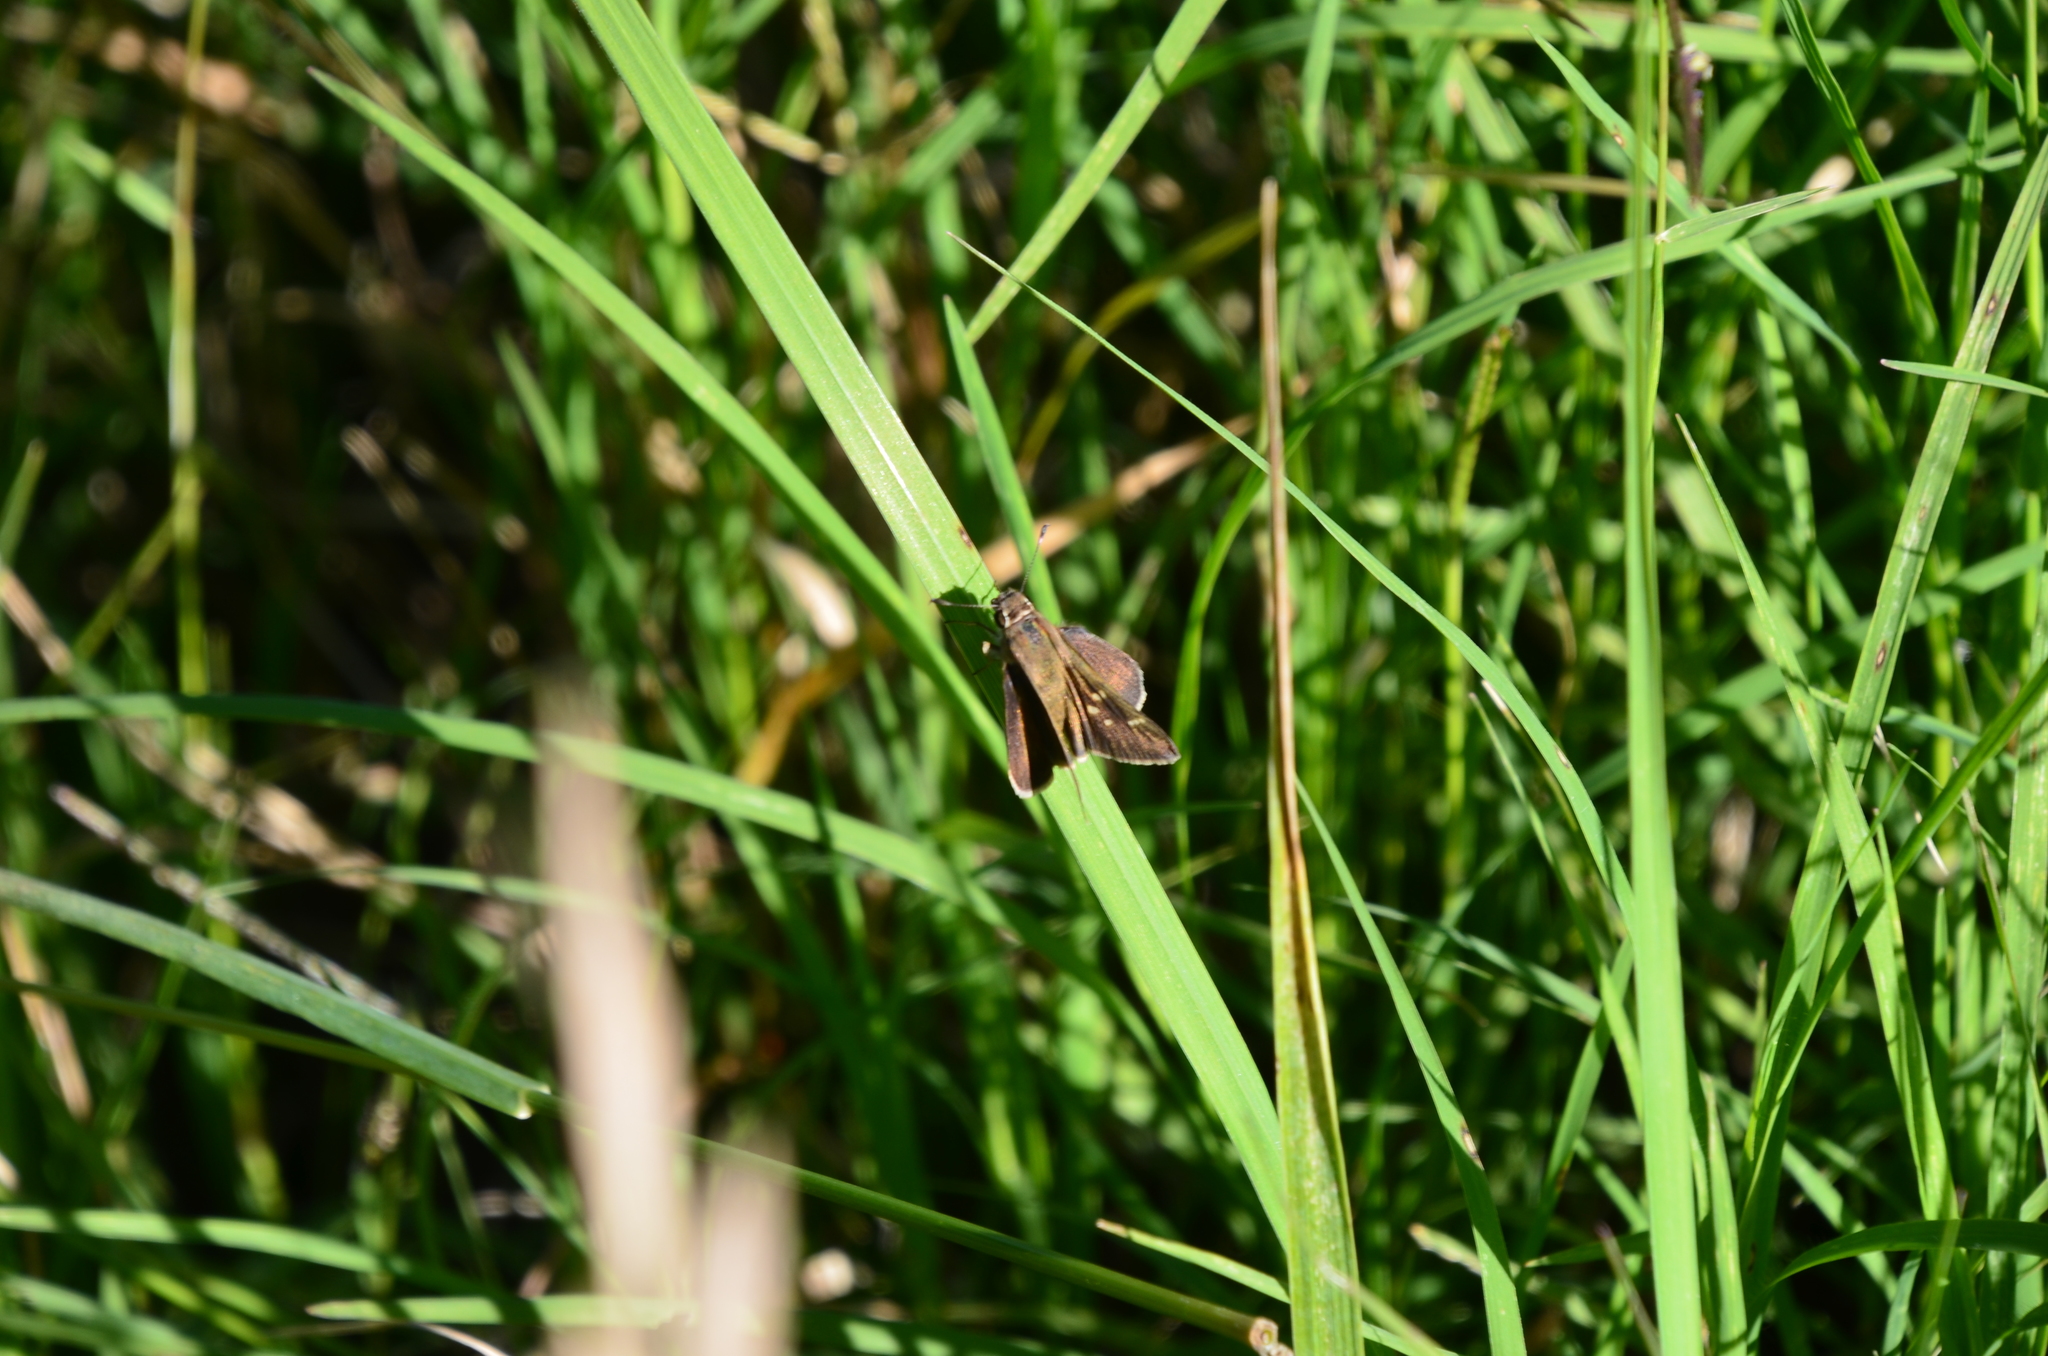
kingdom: Animalia
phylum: Arthropoda
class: Insecta
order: Lepidoptera
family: Hesperiidae
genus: Lerodea
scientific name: Lerodea eufala
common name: Eufala skipper
